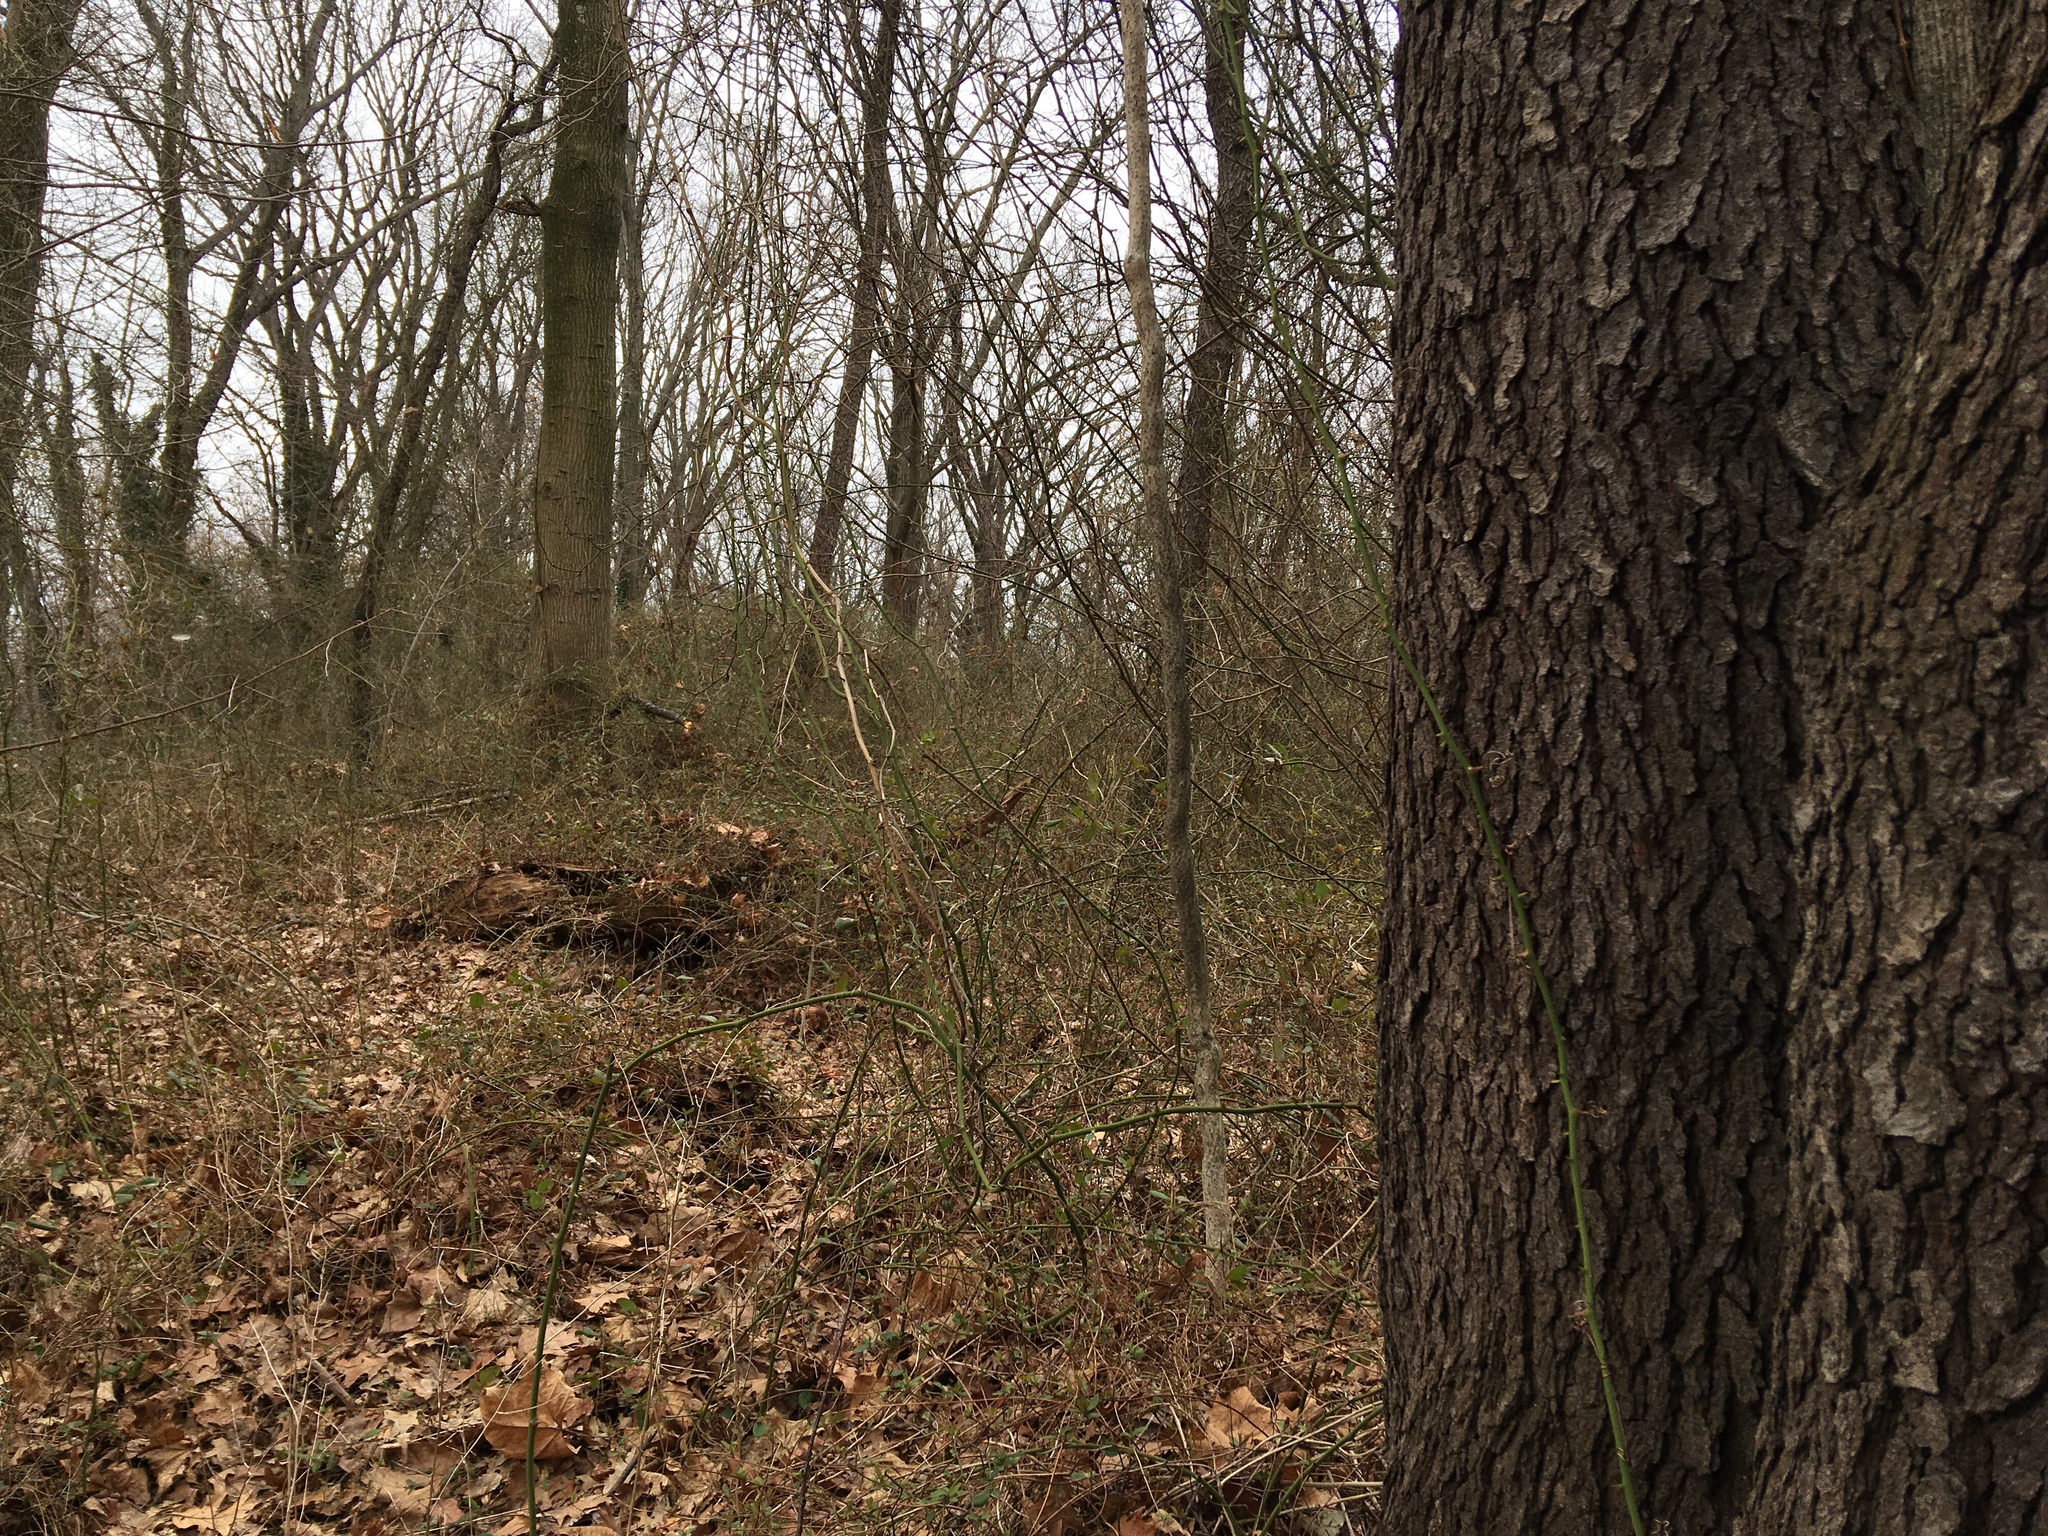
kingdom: Plantae
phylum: Tracheophyta
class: Liliopsida
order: Liliales
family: Smilacaceae
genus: Smilax
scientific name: Smilax rotundifolia
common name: Bullbriar
